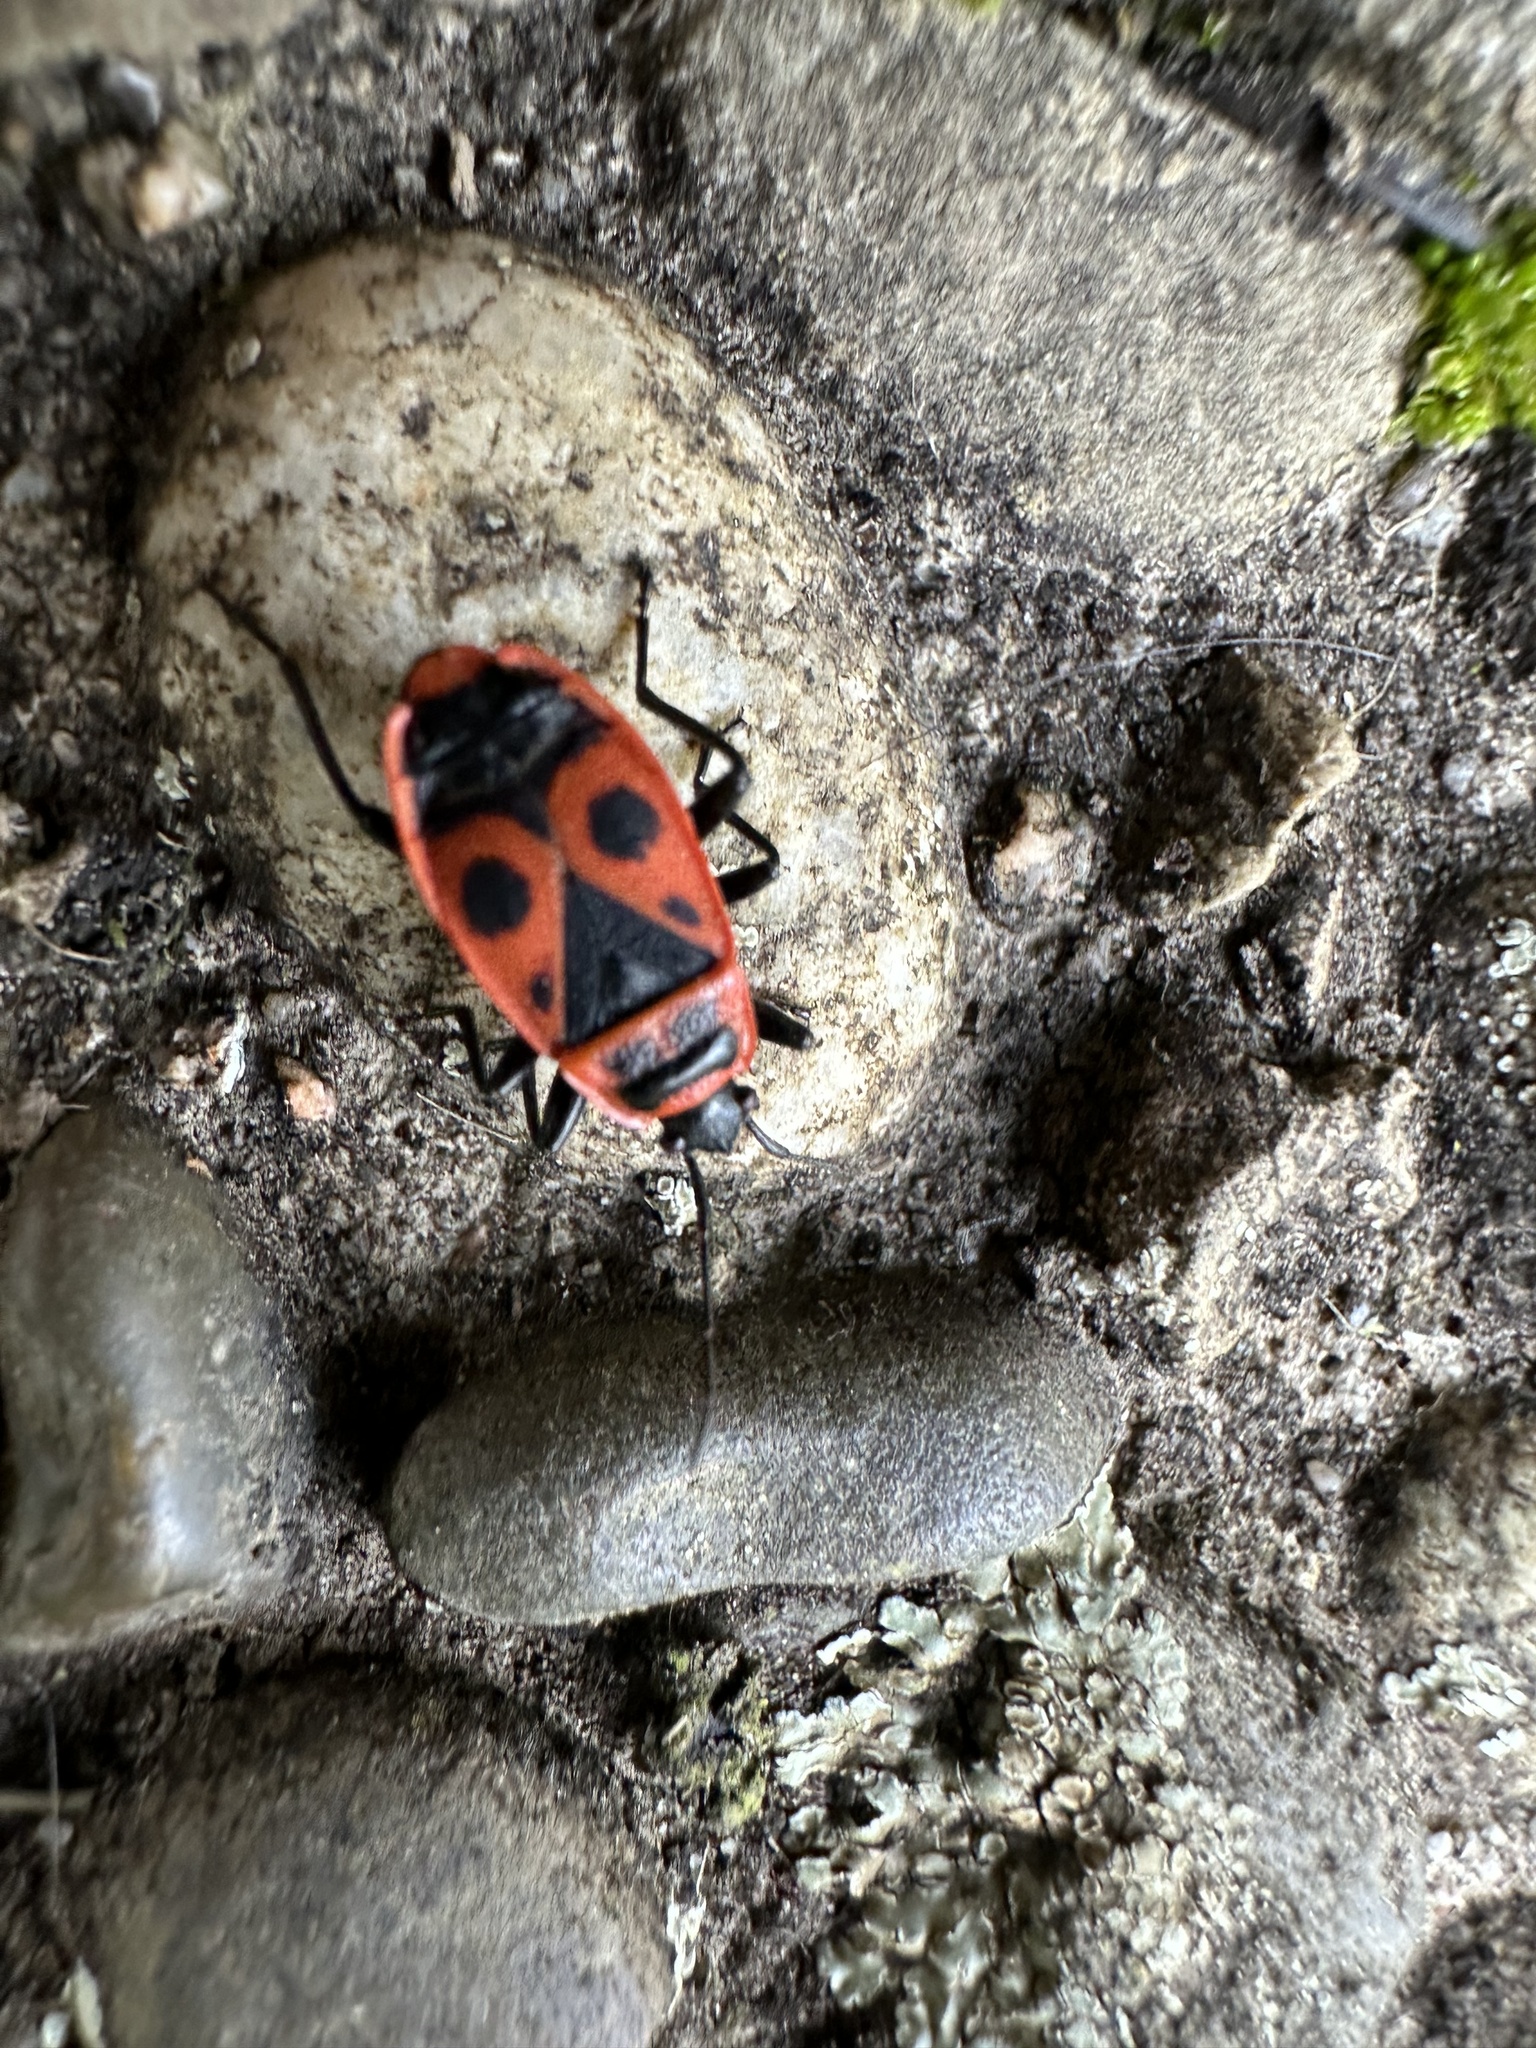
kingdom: Animalia
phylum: Arthropoda
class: Insecta
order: Hemiptera
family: Pyrrhocoridae
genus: Pyrrhocoris
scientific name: Pyrrhocoris apterus
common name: Firebug
